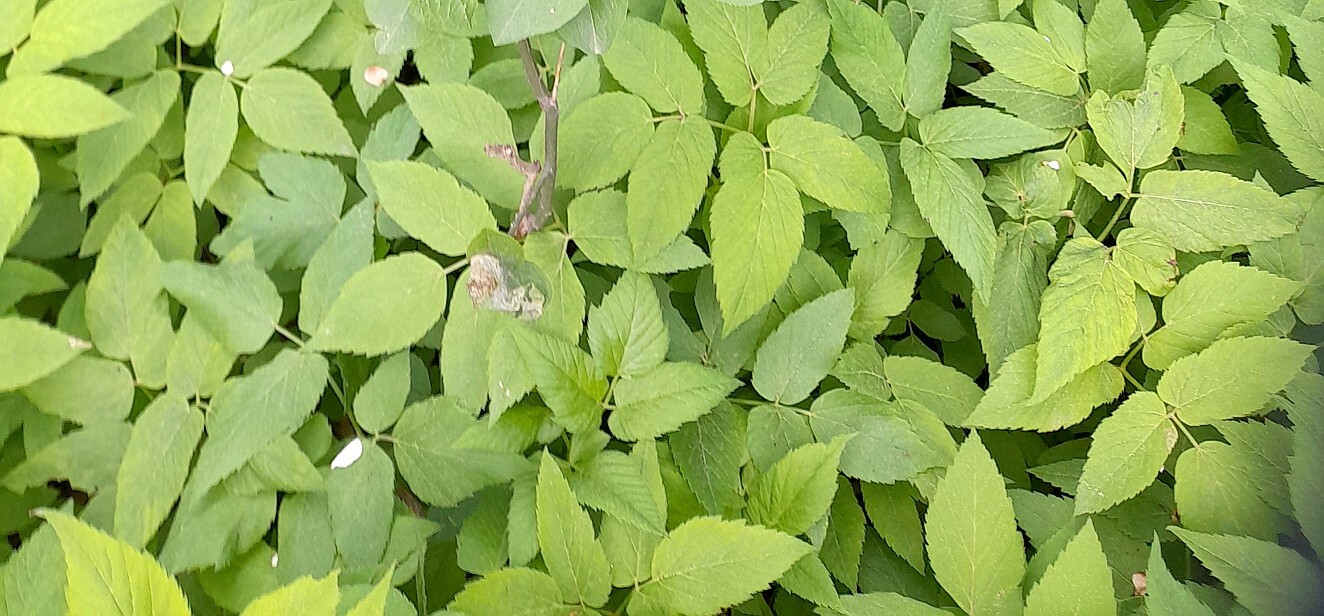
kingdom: Plantae
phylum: Tracheophyta
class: Magnoliopsida
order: Apiales
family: Apiaceae
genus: Aegopodium
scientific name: Aegopodium podagraria
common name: Ground-elder
